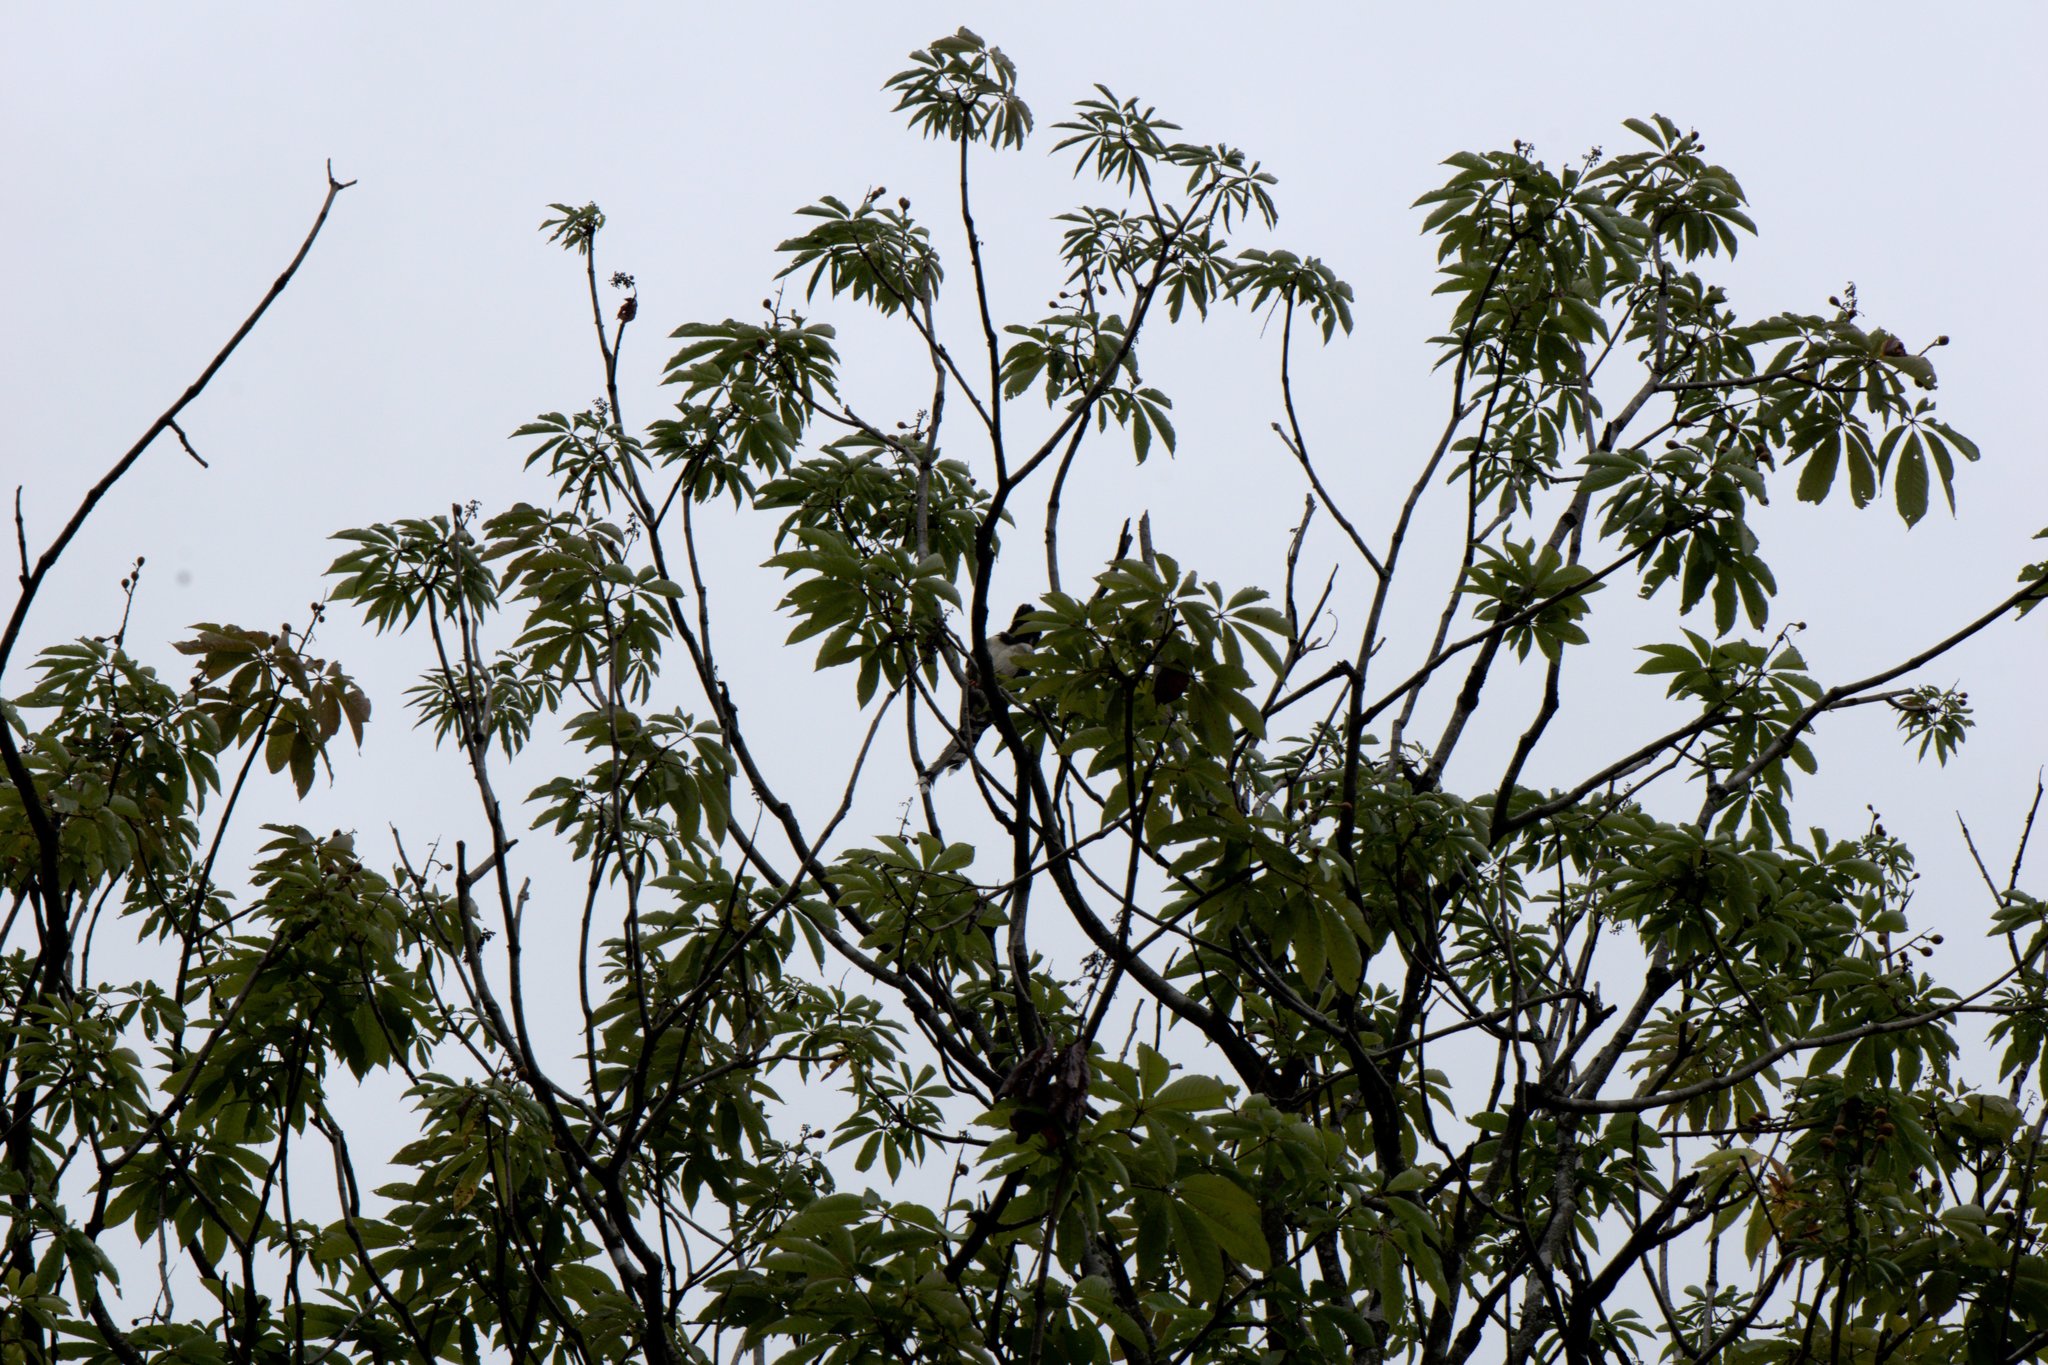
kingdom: Animalia
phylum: Chordata
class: Aves
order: Passeriformes
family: Corvidae
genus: Urocissa
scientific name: Urocissa flavirostris
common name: Yellow-billed blue magpie
